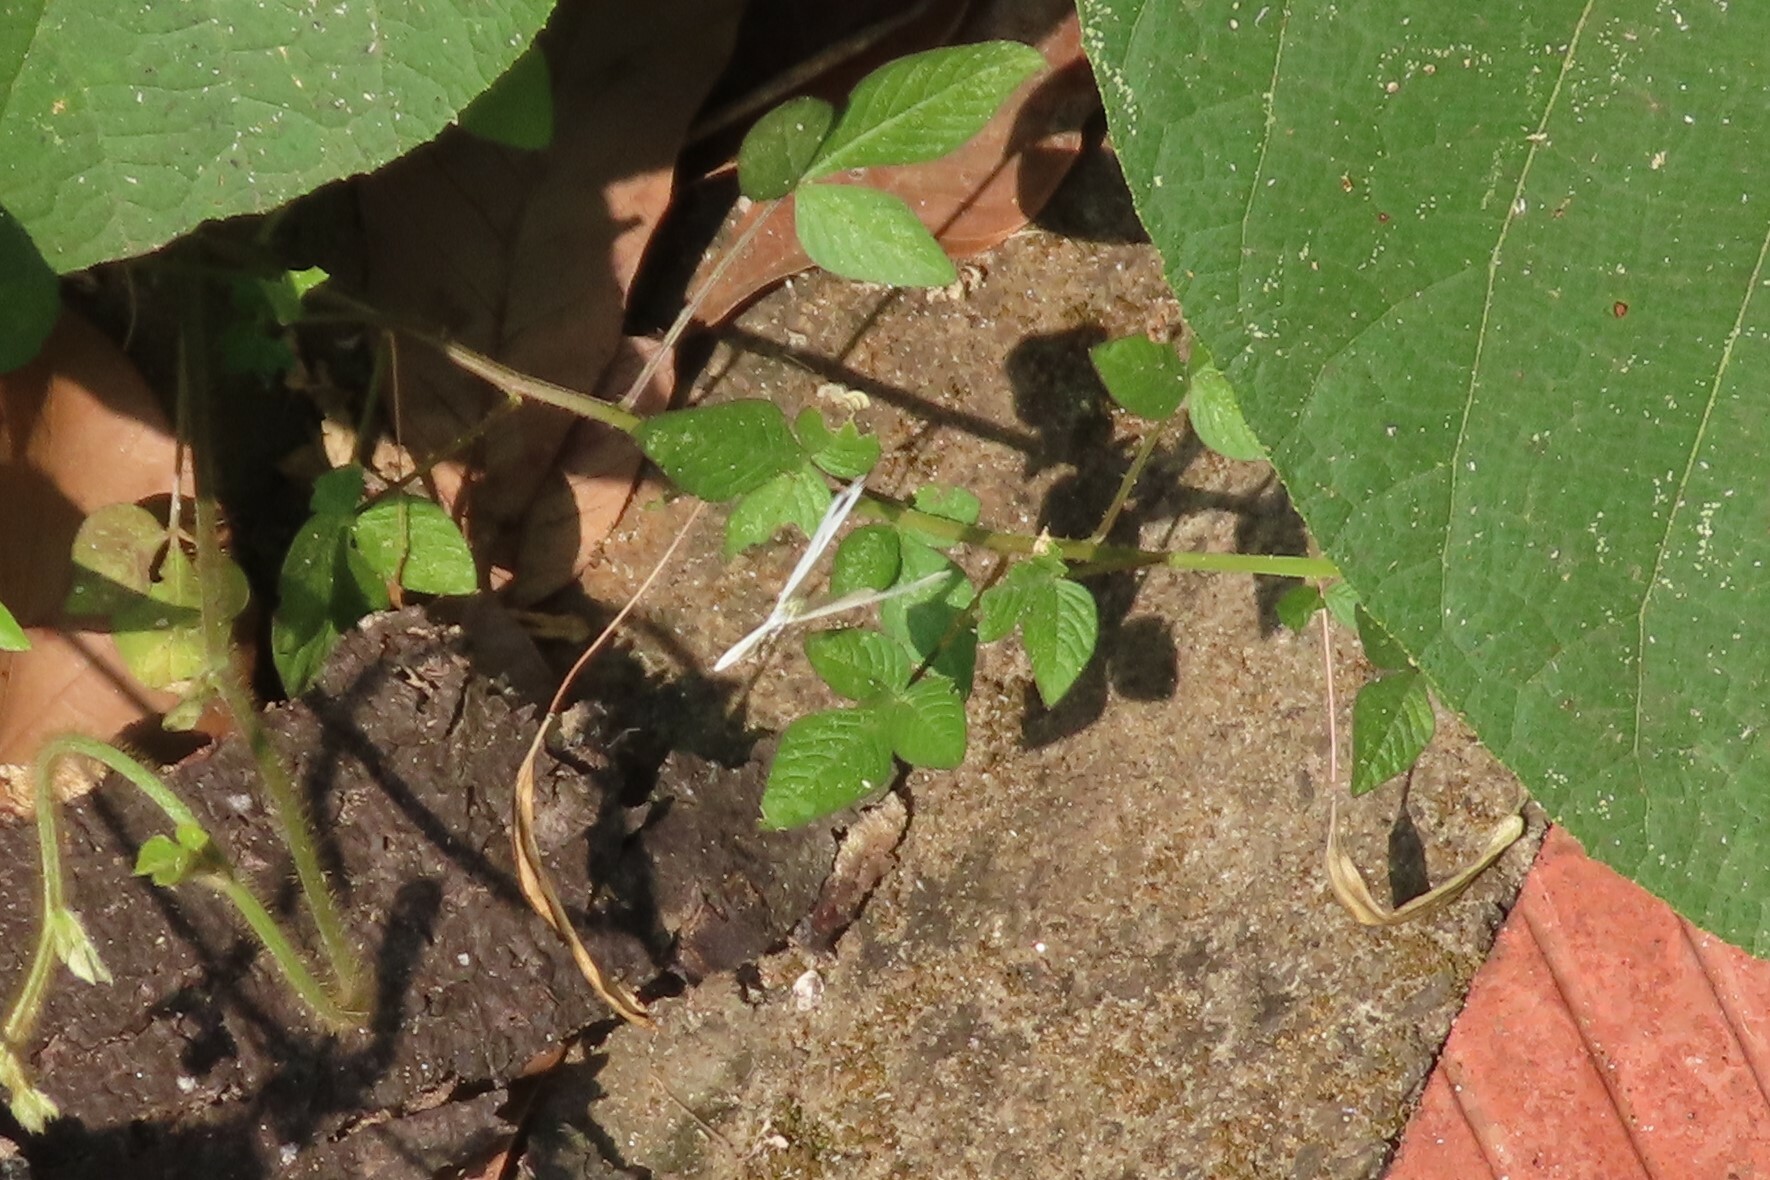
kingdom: Animalia
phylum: Arthropoda
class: Insecta
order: Lepidoptera
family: Pieridae
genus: Leptosia
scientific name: Leptosia nina
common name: Psyche
